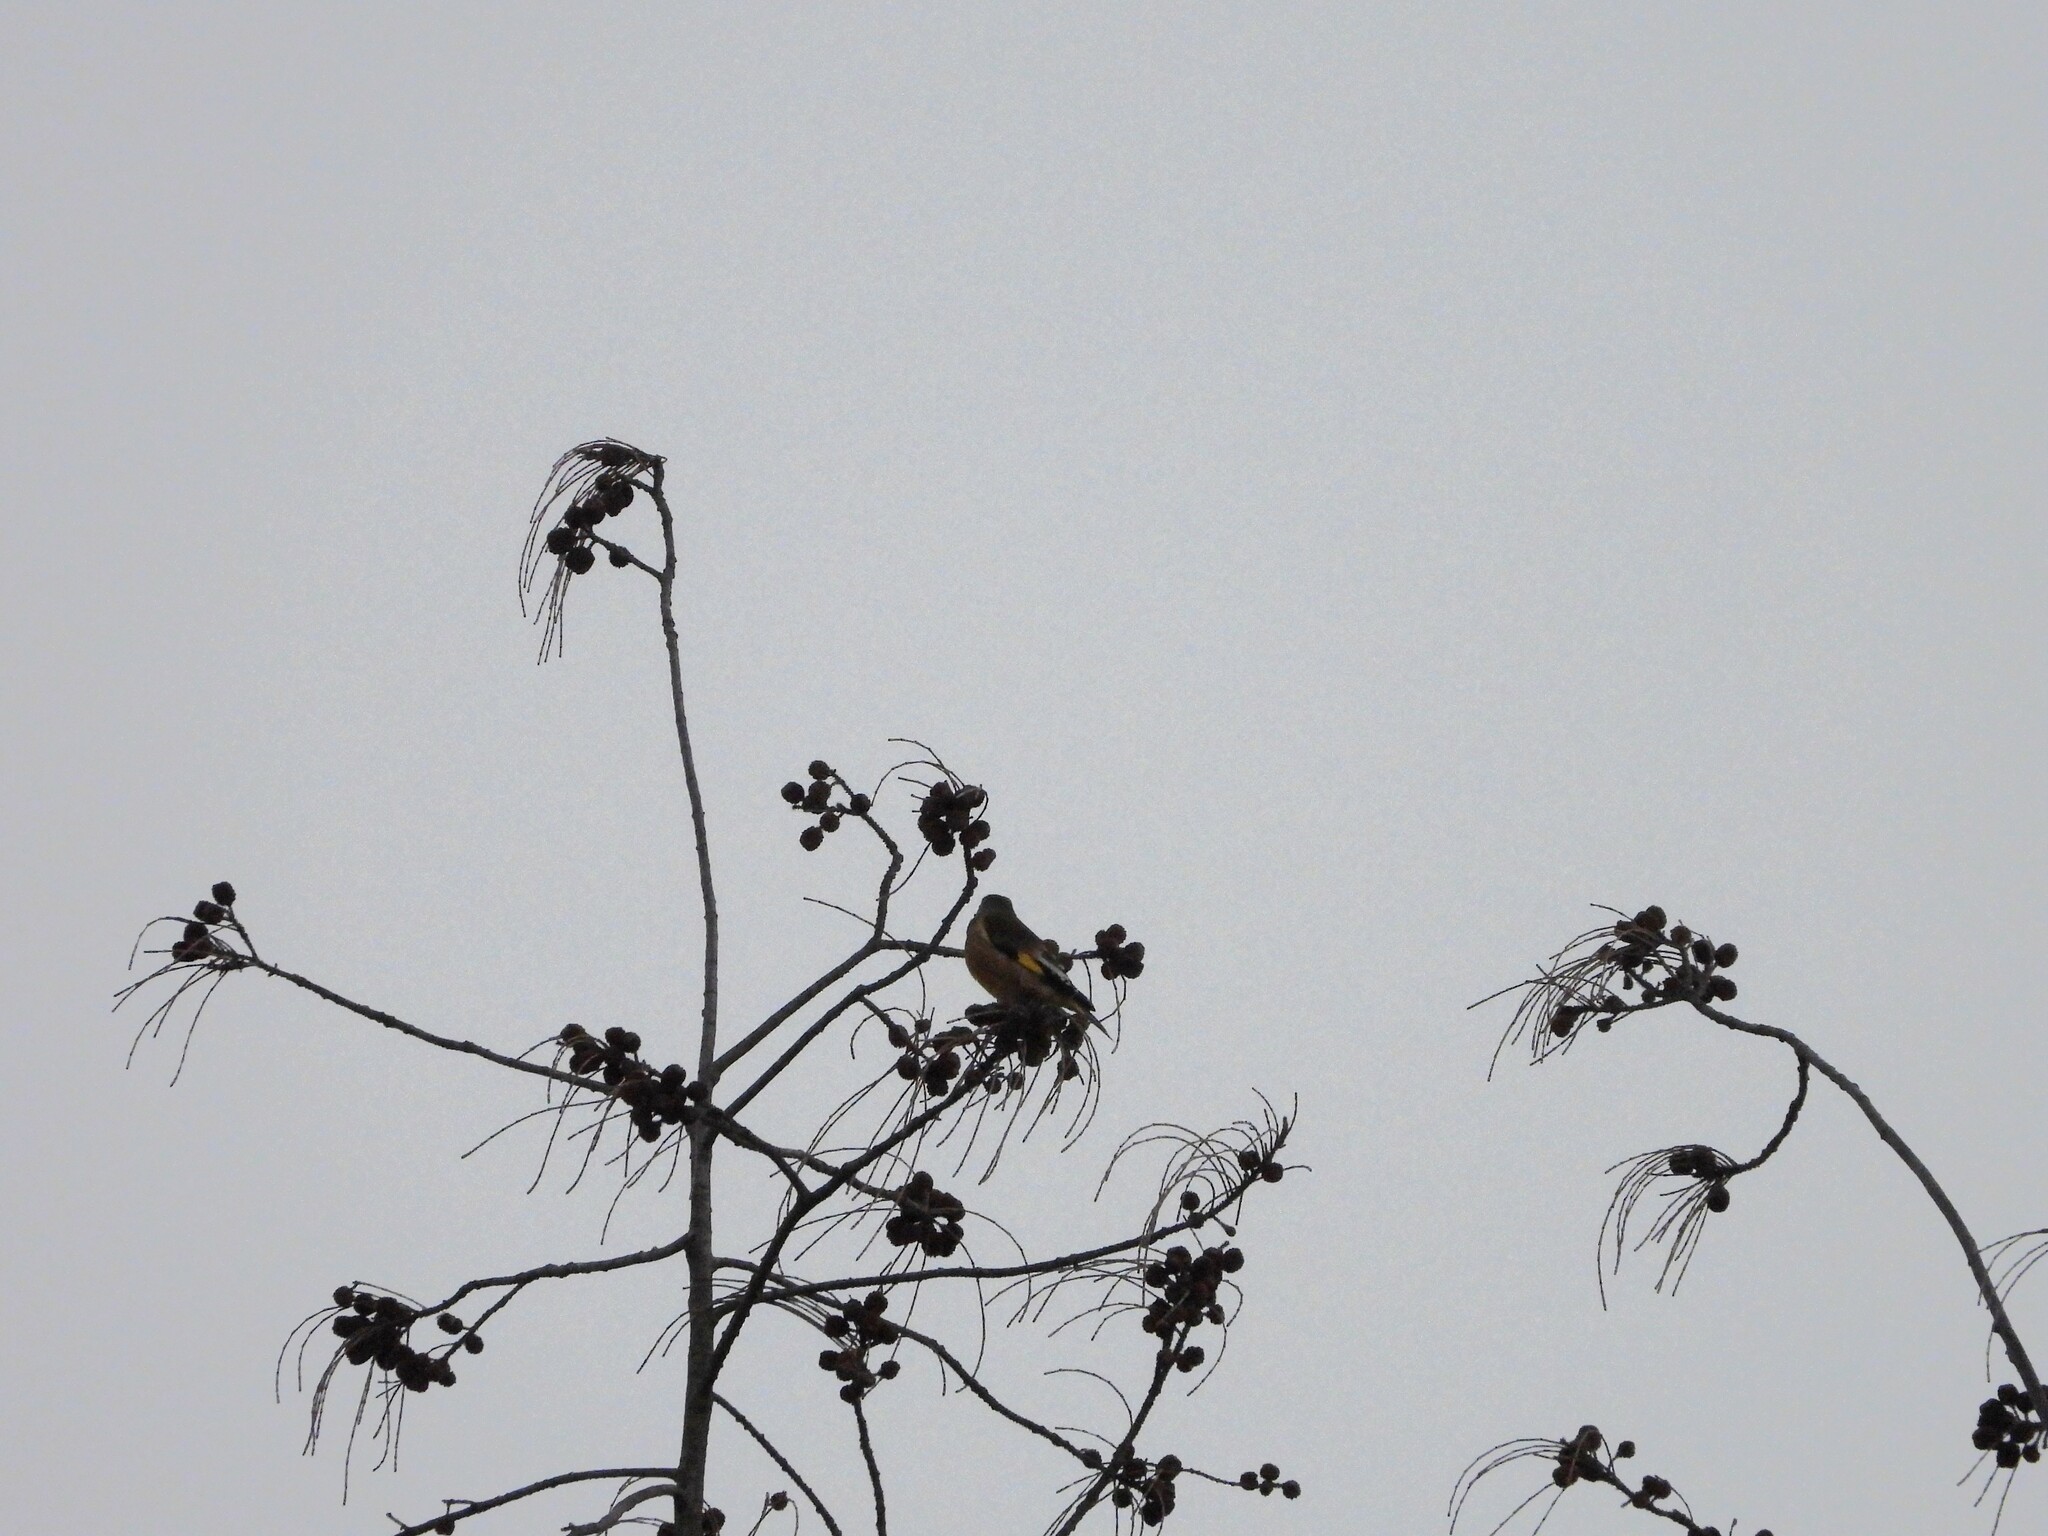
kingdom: Plantae
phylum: Tracheophyta
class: Liliopsida
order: Poales
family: Poaceae
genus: Chloris
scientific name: Chloris sinica
